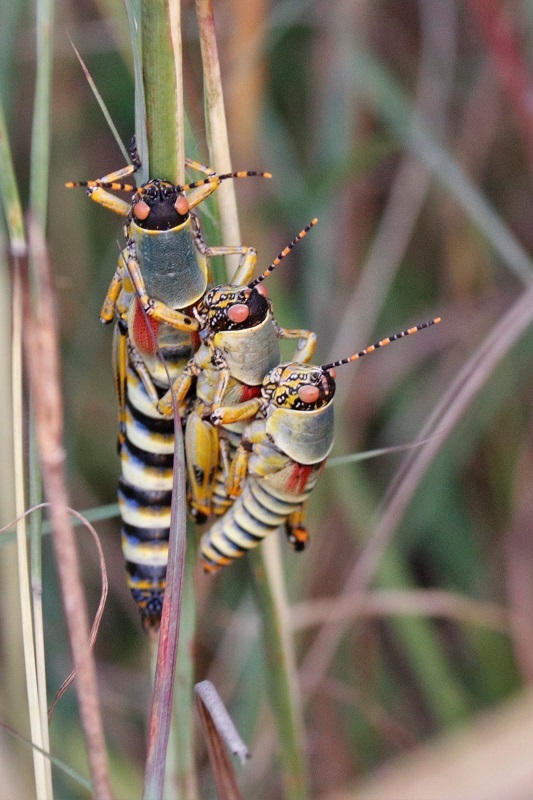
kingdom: Animalia
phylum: Arthropoda
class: Insecta
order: Orthoptera
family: Pyrgomorphidae
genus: Zonocerus
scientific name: Zonocerus elegans
